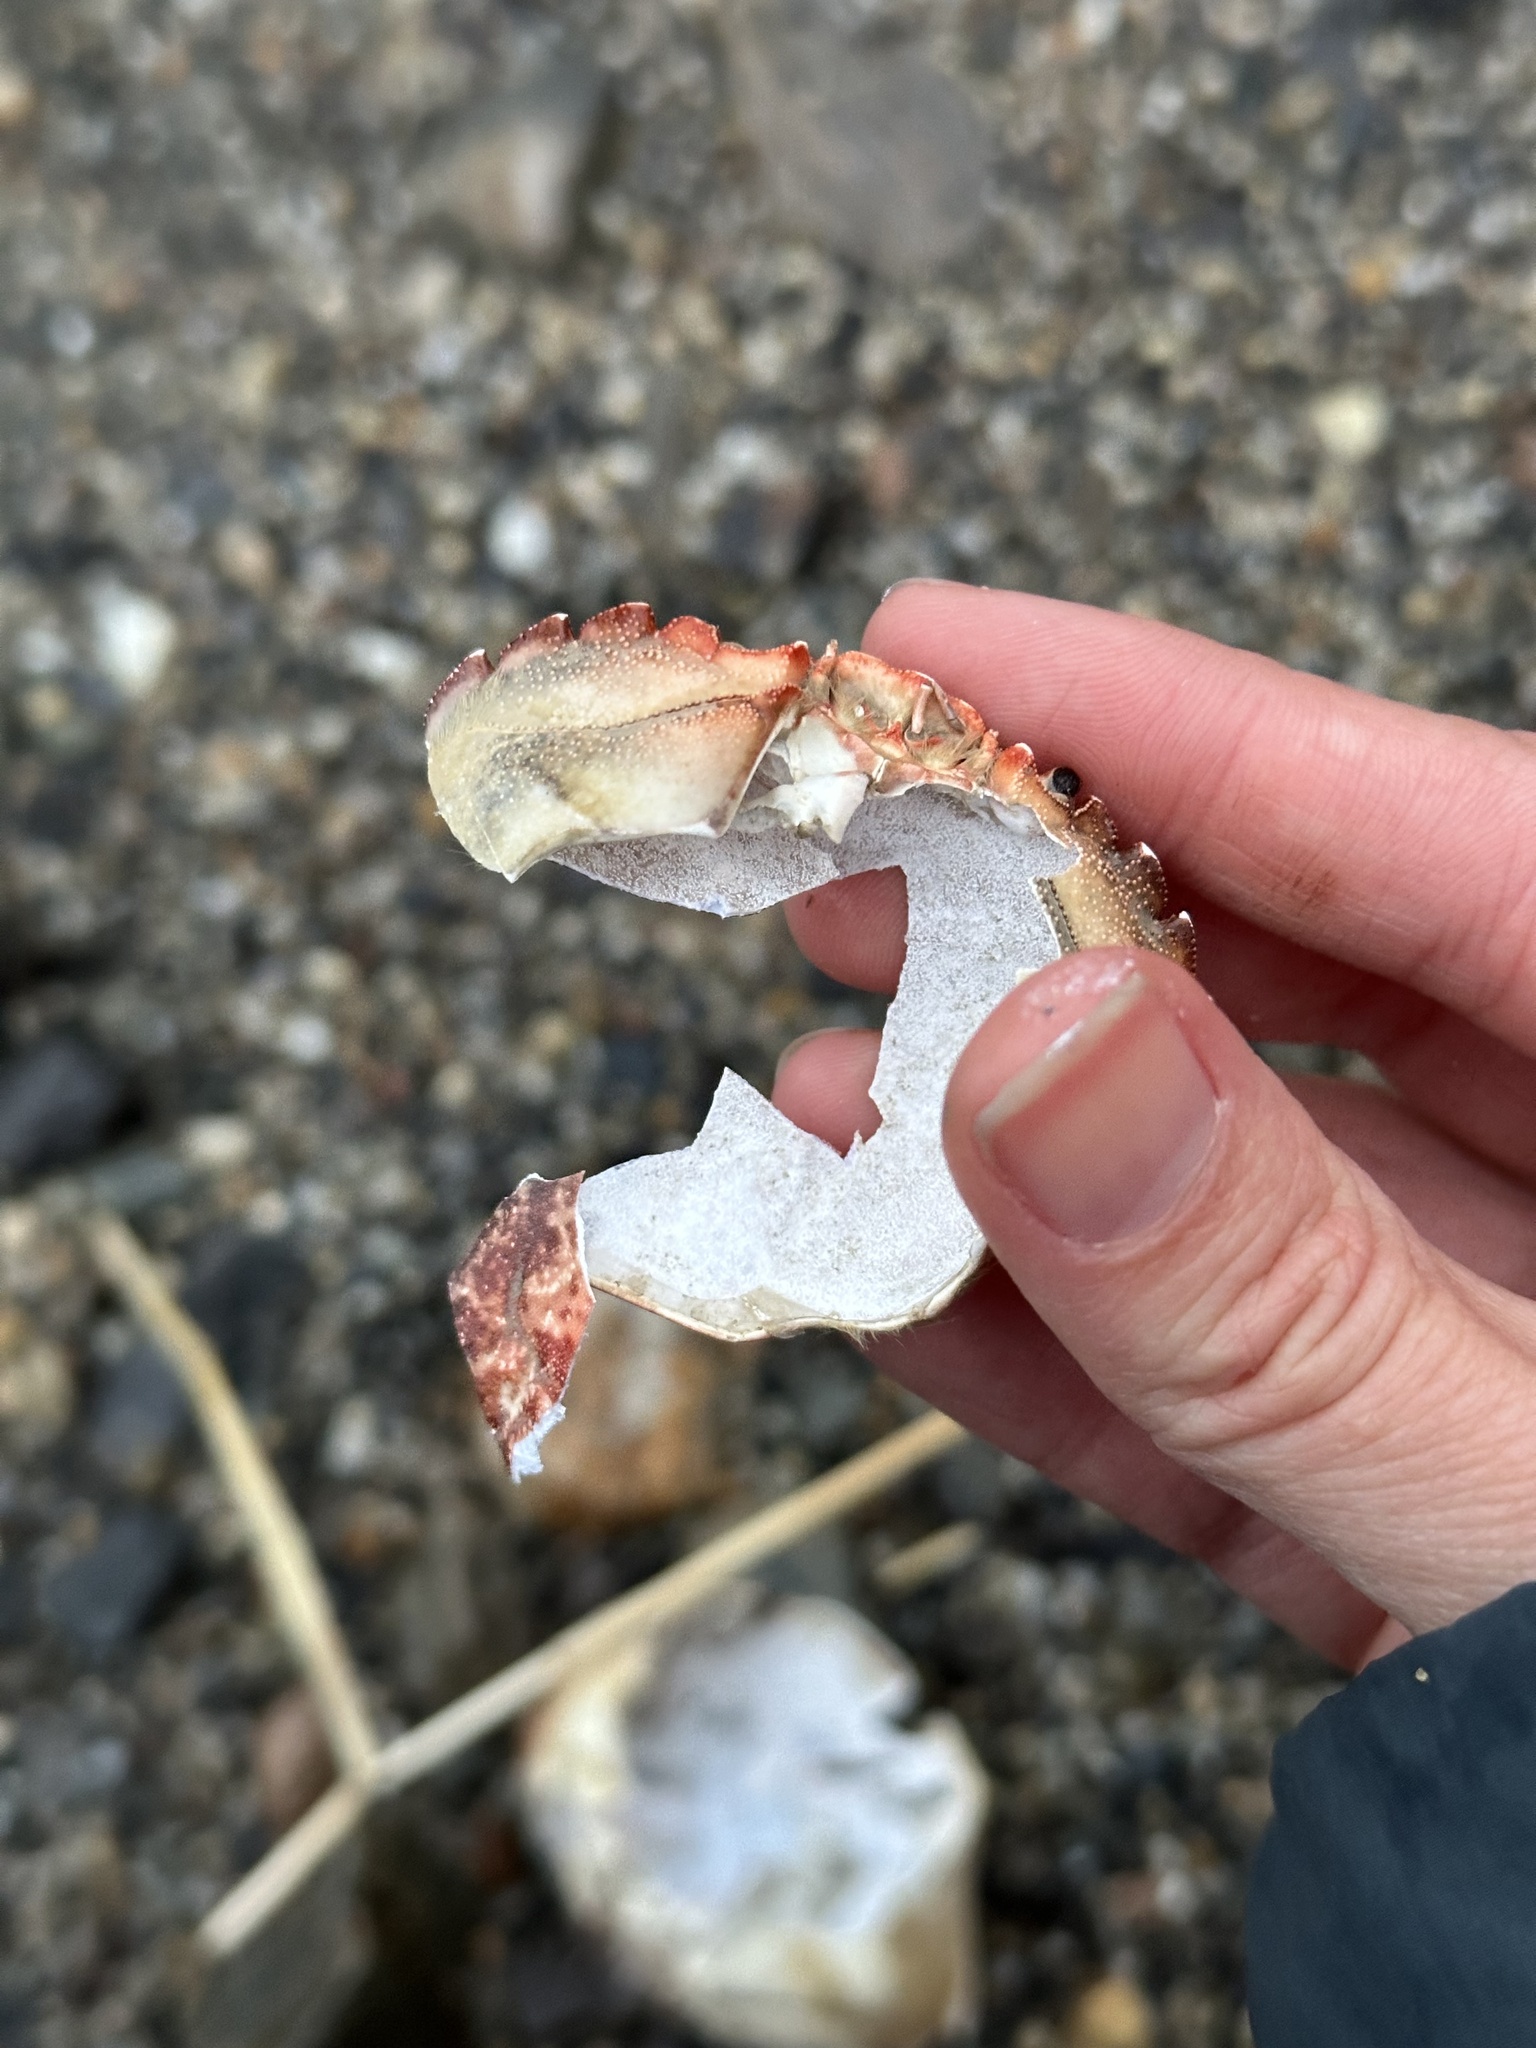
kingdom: Animalia
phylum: Arthropoda
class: Malacostraca
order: Decapoda
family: Carcinidae
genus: Carcinus
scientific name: Carcinus maenas
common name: European green crab
